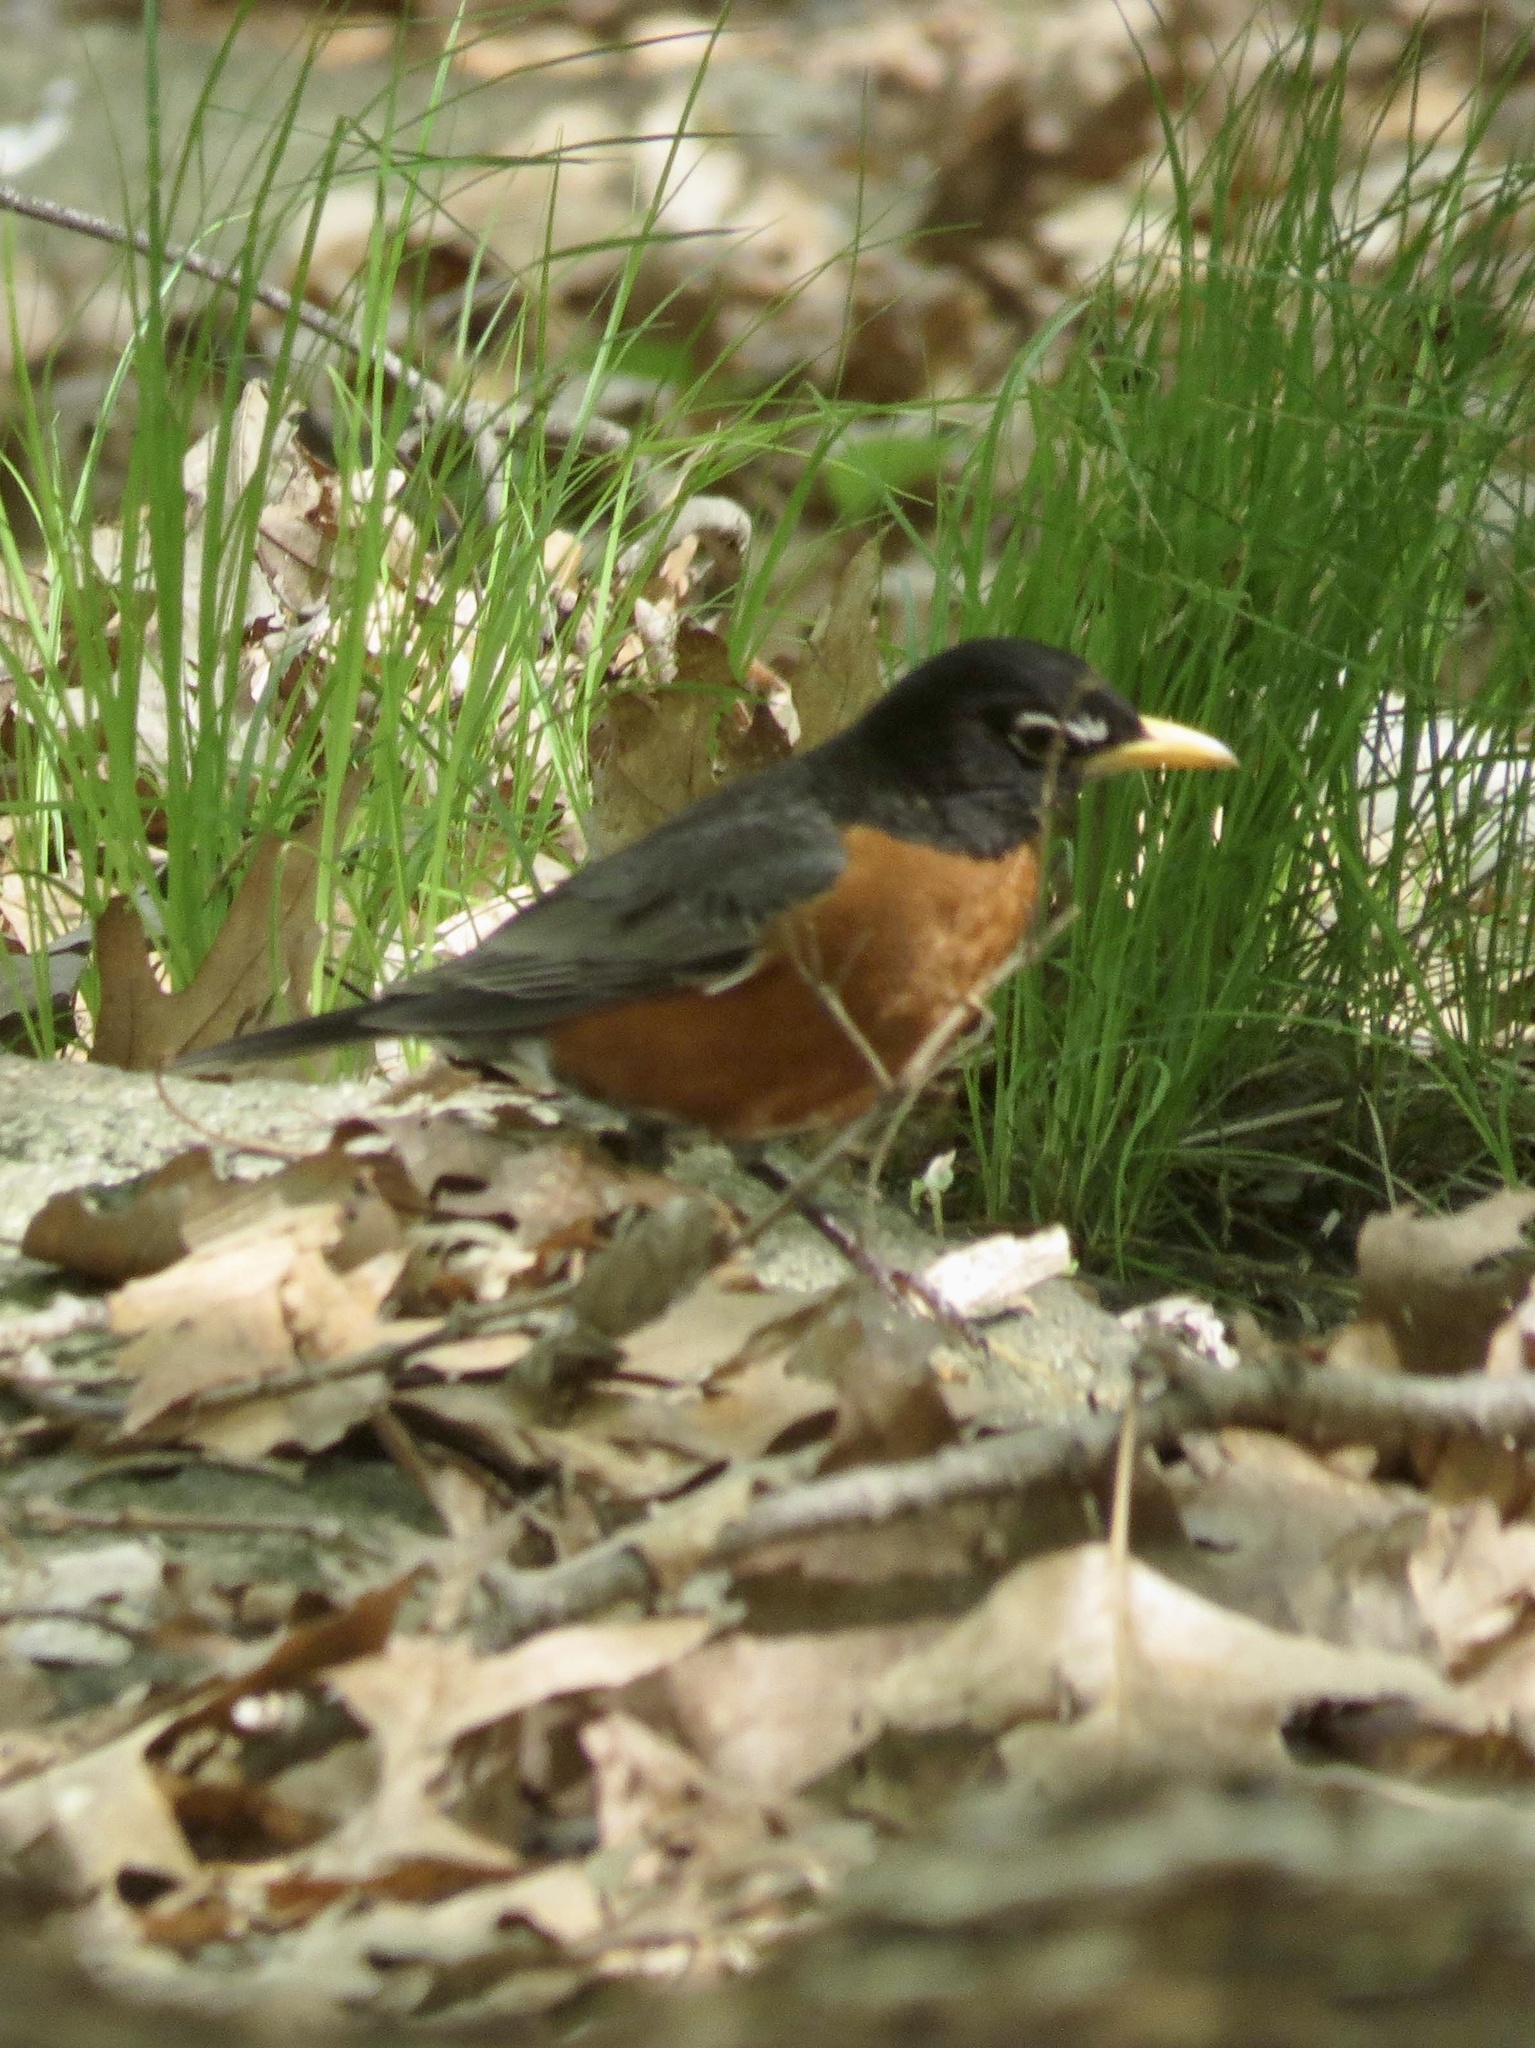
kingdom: Animalia
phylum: Chordata
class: Aves
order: Passeriformes
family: Turdidae
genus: Turdus
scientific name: Turdus migratorius
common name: American robin
